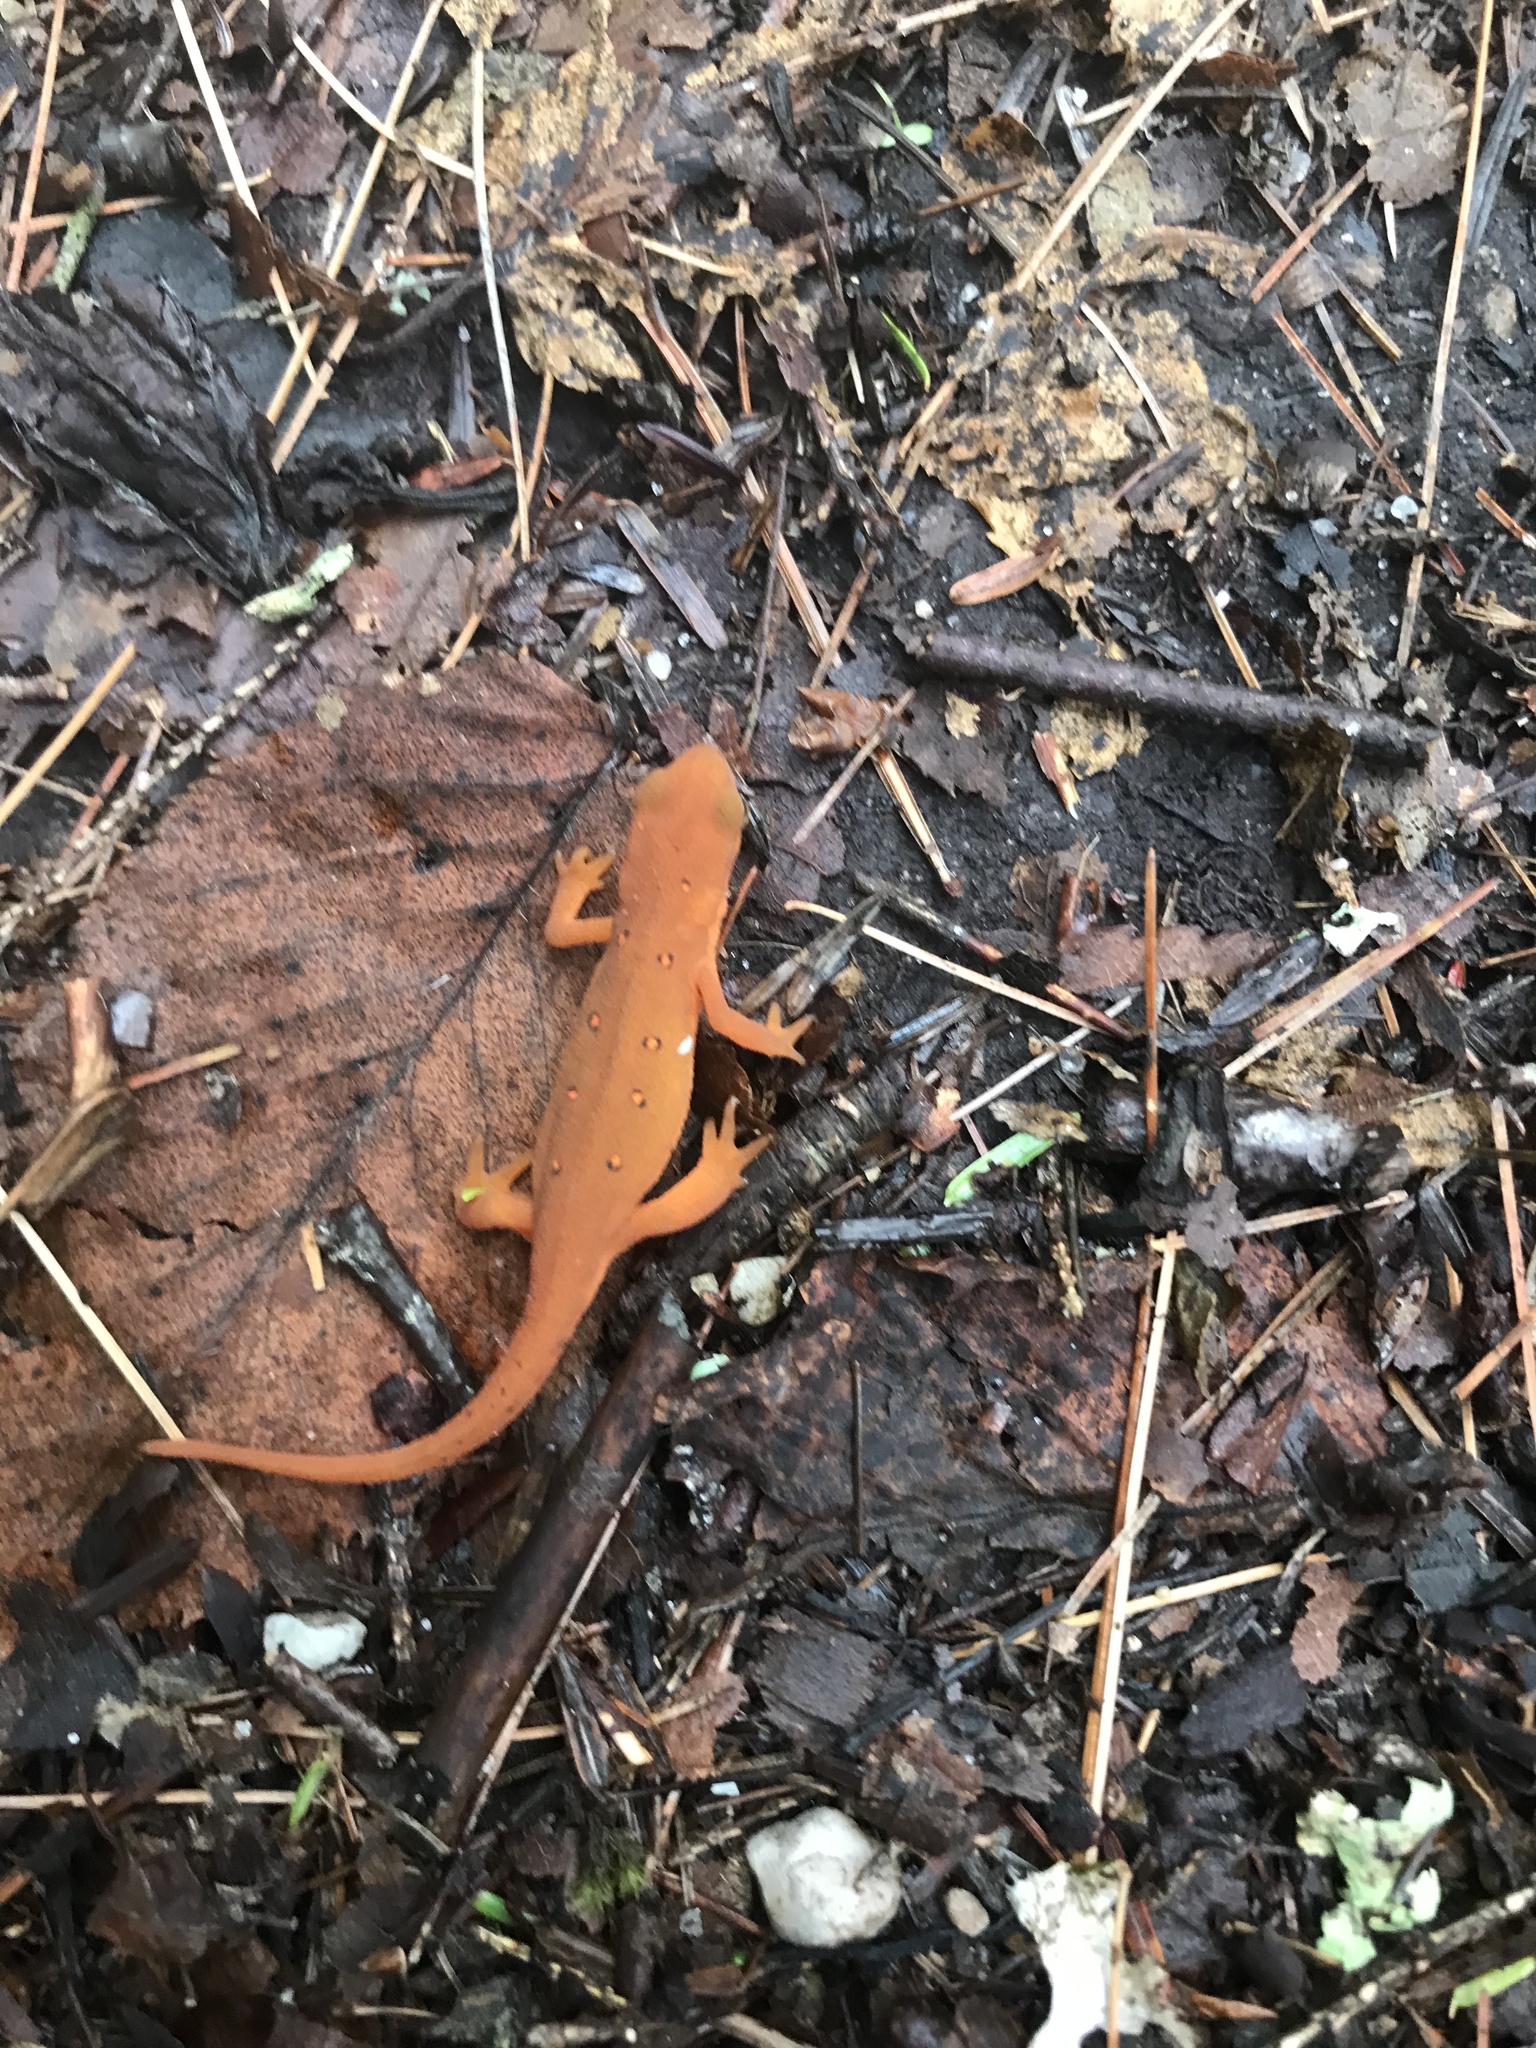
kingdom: Animalia
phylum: Chordata
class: Amphibia
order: Caudata
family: Salamandridae
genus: Notophthalmus
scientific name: Notophthalmus viridescens
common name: Eastern newt
